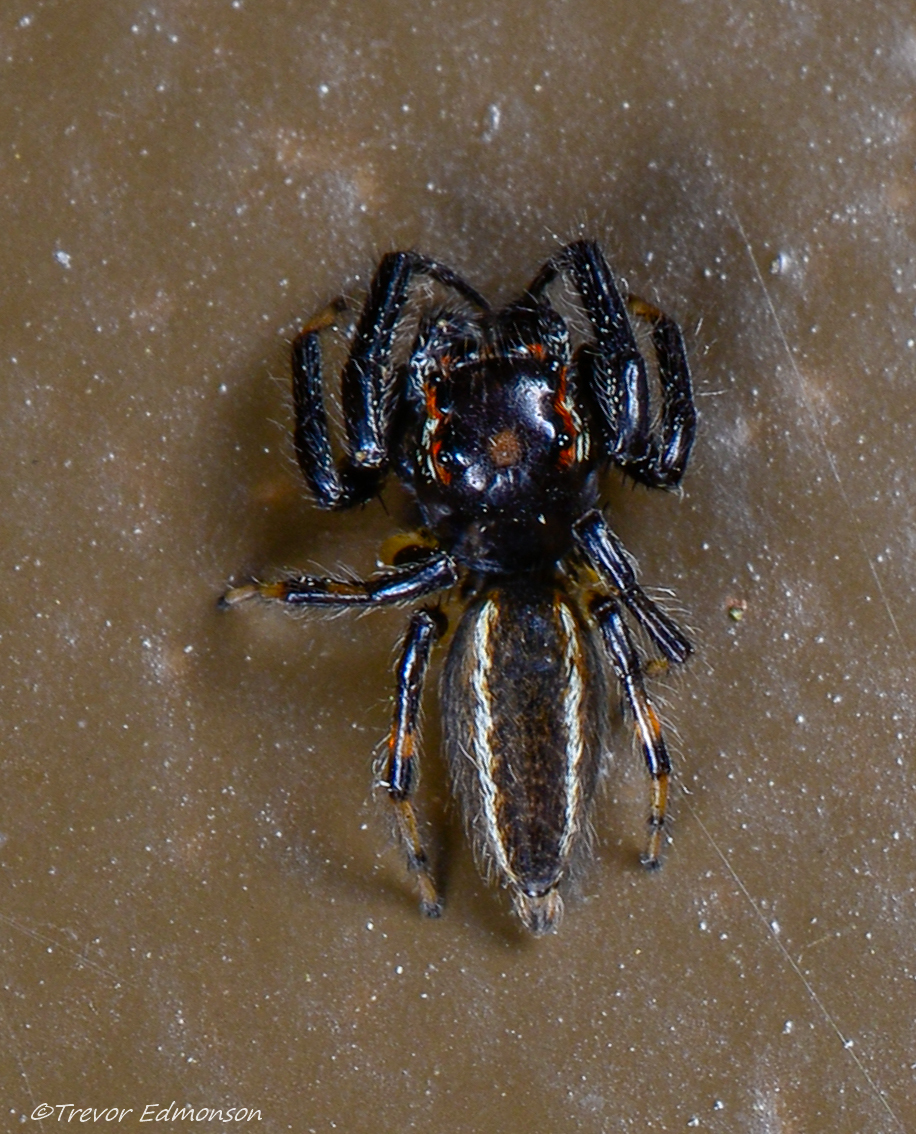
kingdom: Animalia
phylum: Arthropoda
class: Arachnida
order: Araneae
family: Salticidae
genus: Colonus
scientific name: Colonus sylvanus
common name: Jumping spiders
